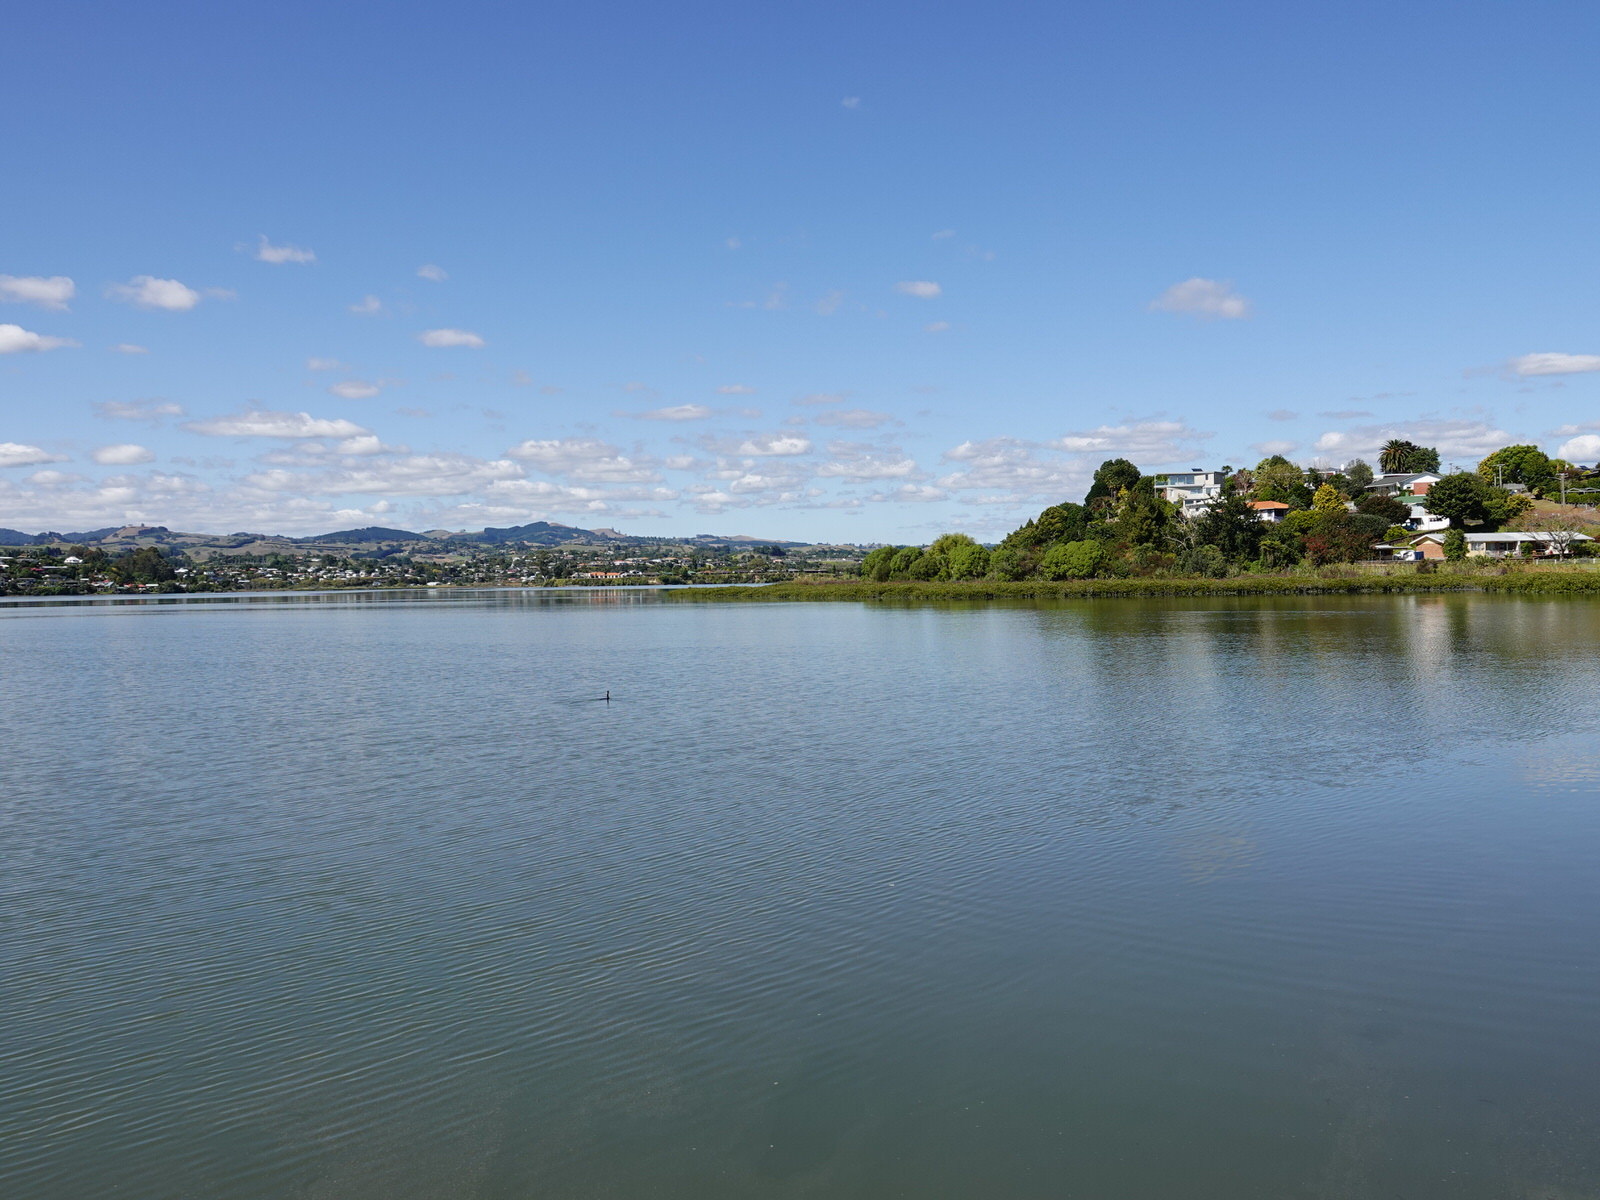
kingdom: Animalia
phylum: Chordata
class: Aves
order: Suliformes
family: Phalacrocoracidae
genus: Phalacrocorax
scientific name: Phalacrocorax varius
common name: Pied cormorant
